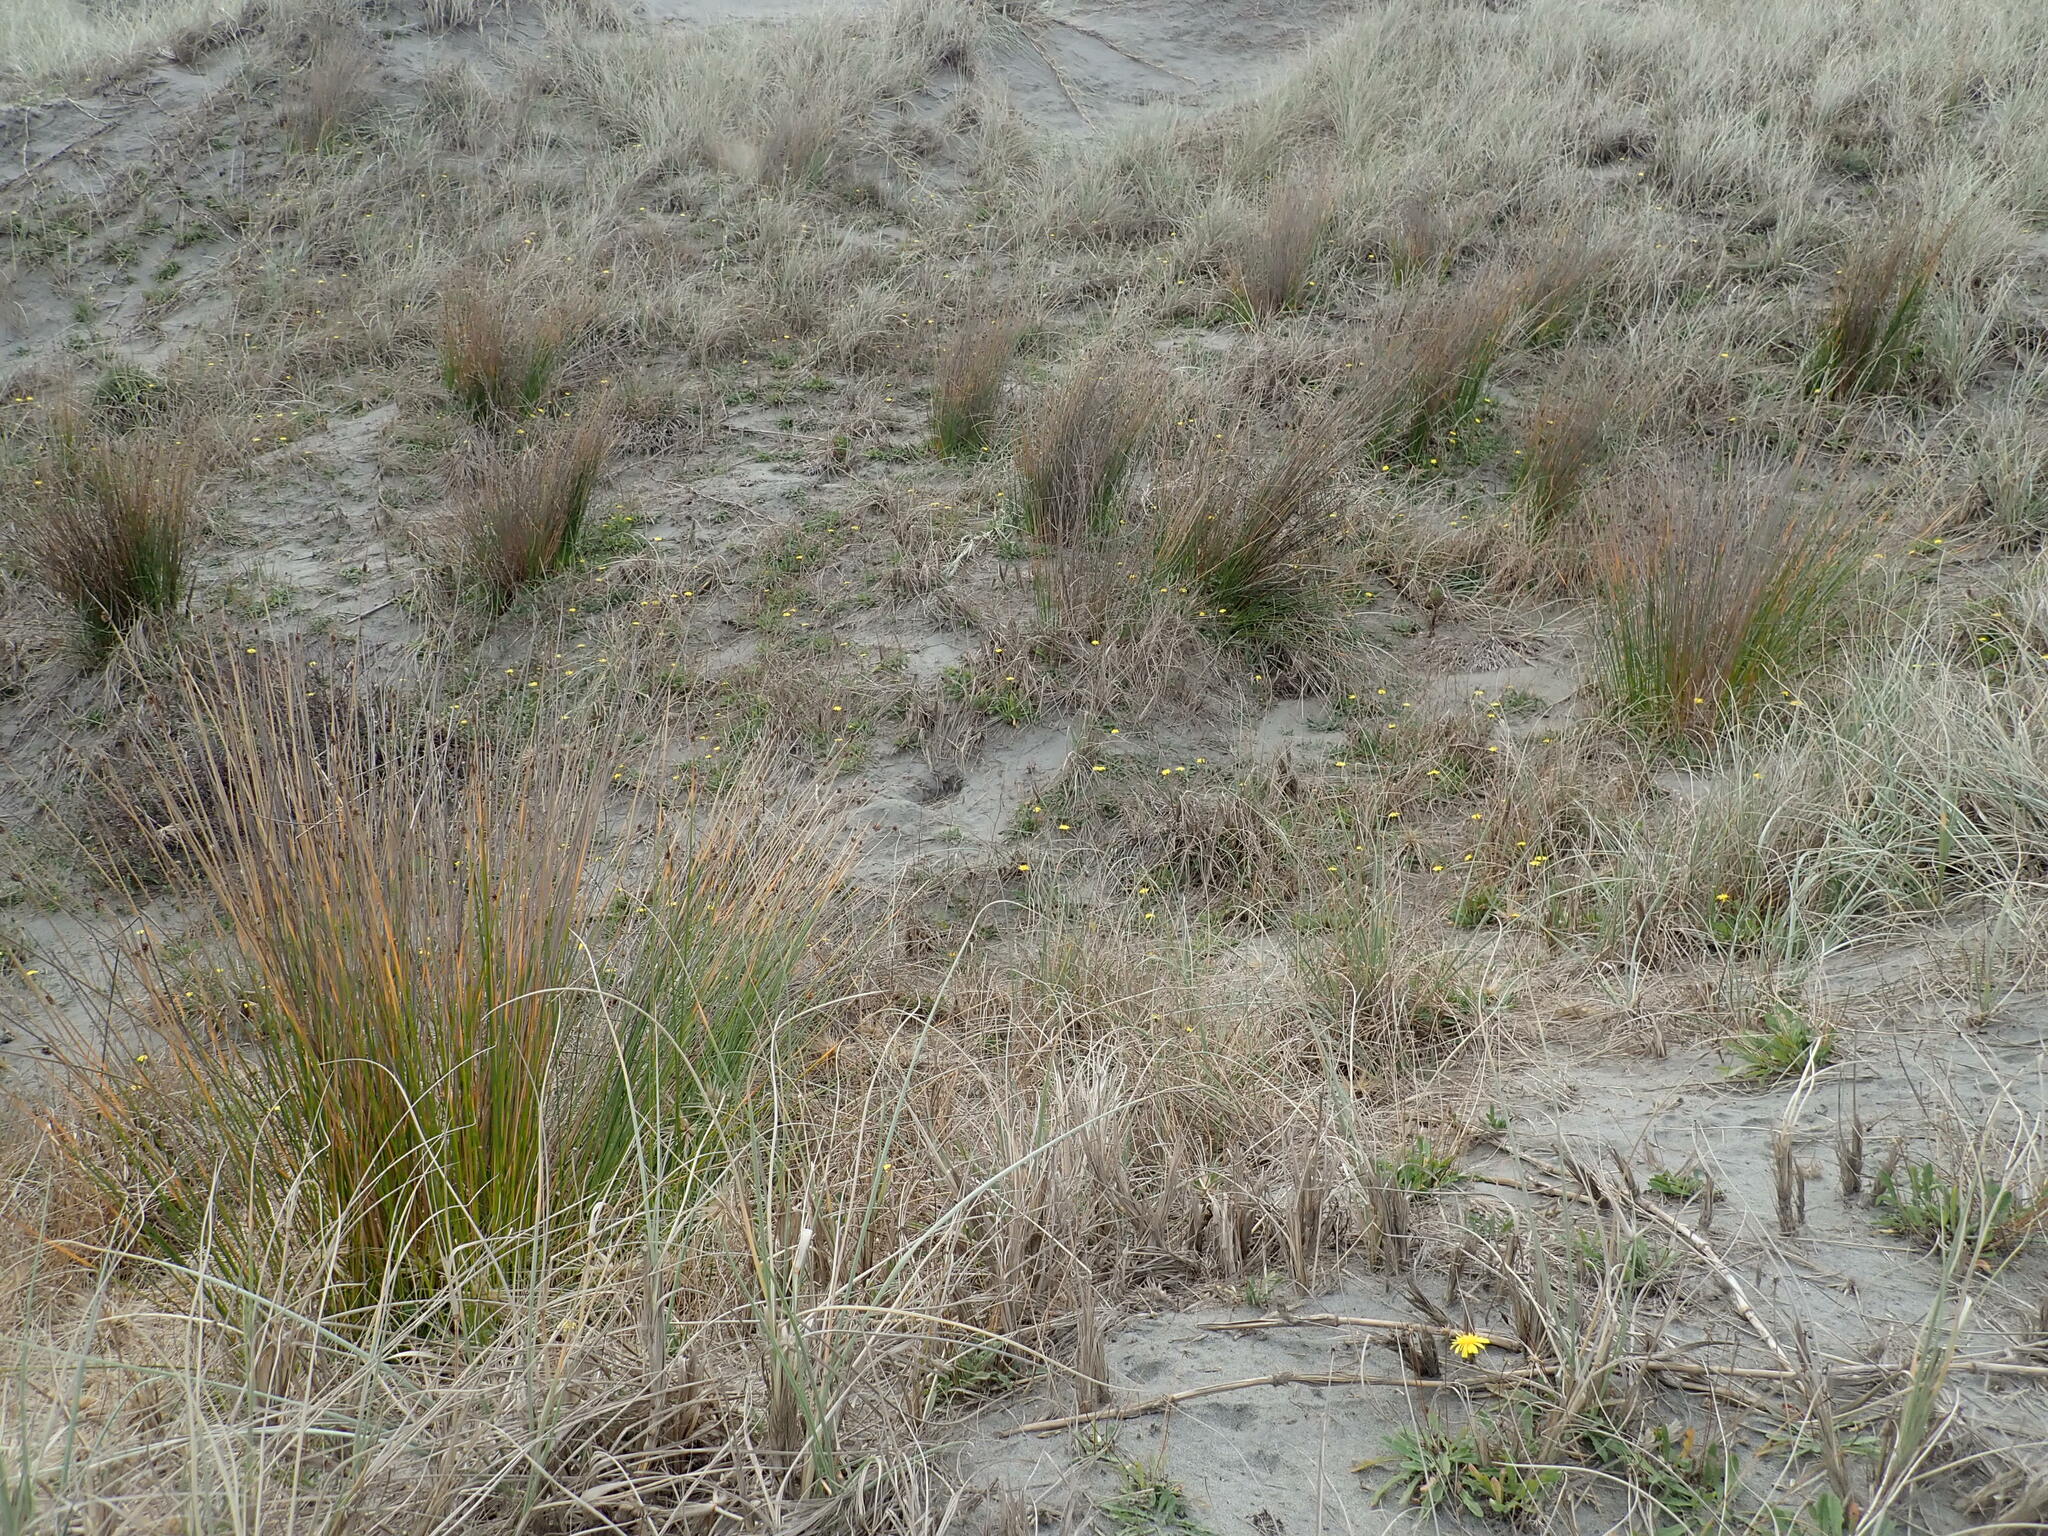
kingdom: Plantae
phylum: Tracheophyta
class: Liliopsida
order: Poales
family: Cyperaceae
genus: Ficinia
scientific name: Ficinia nodosa
